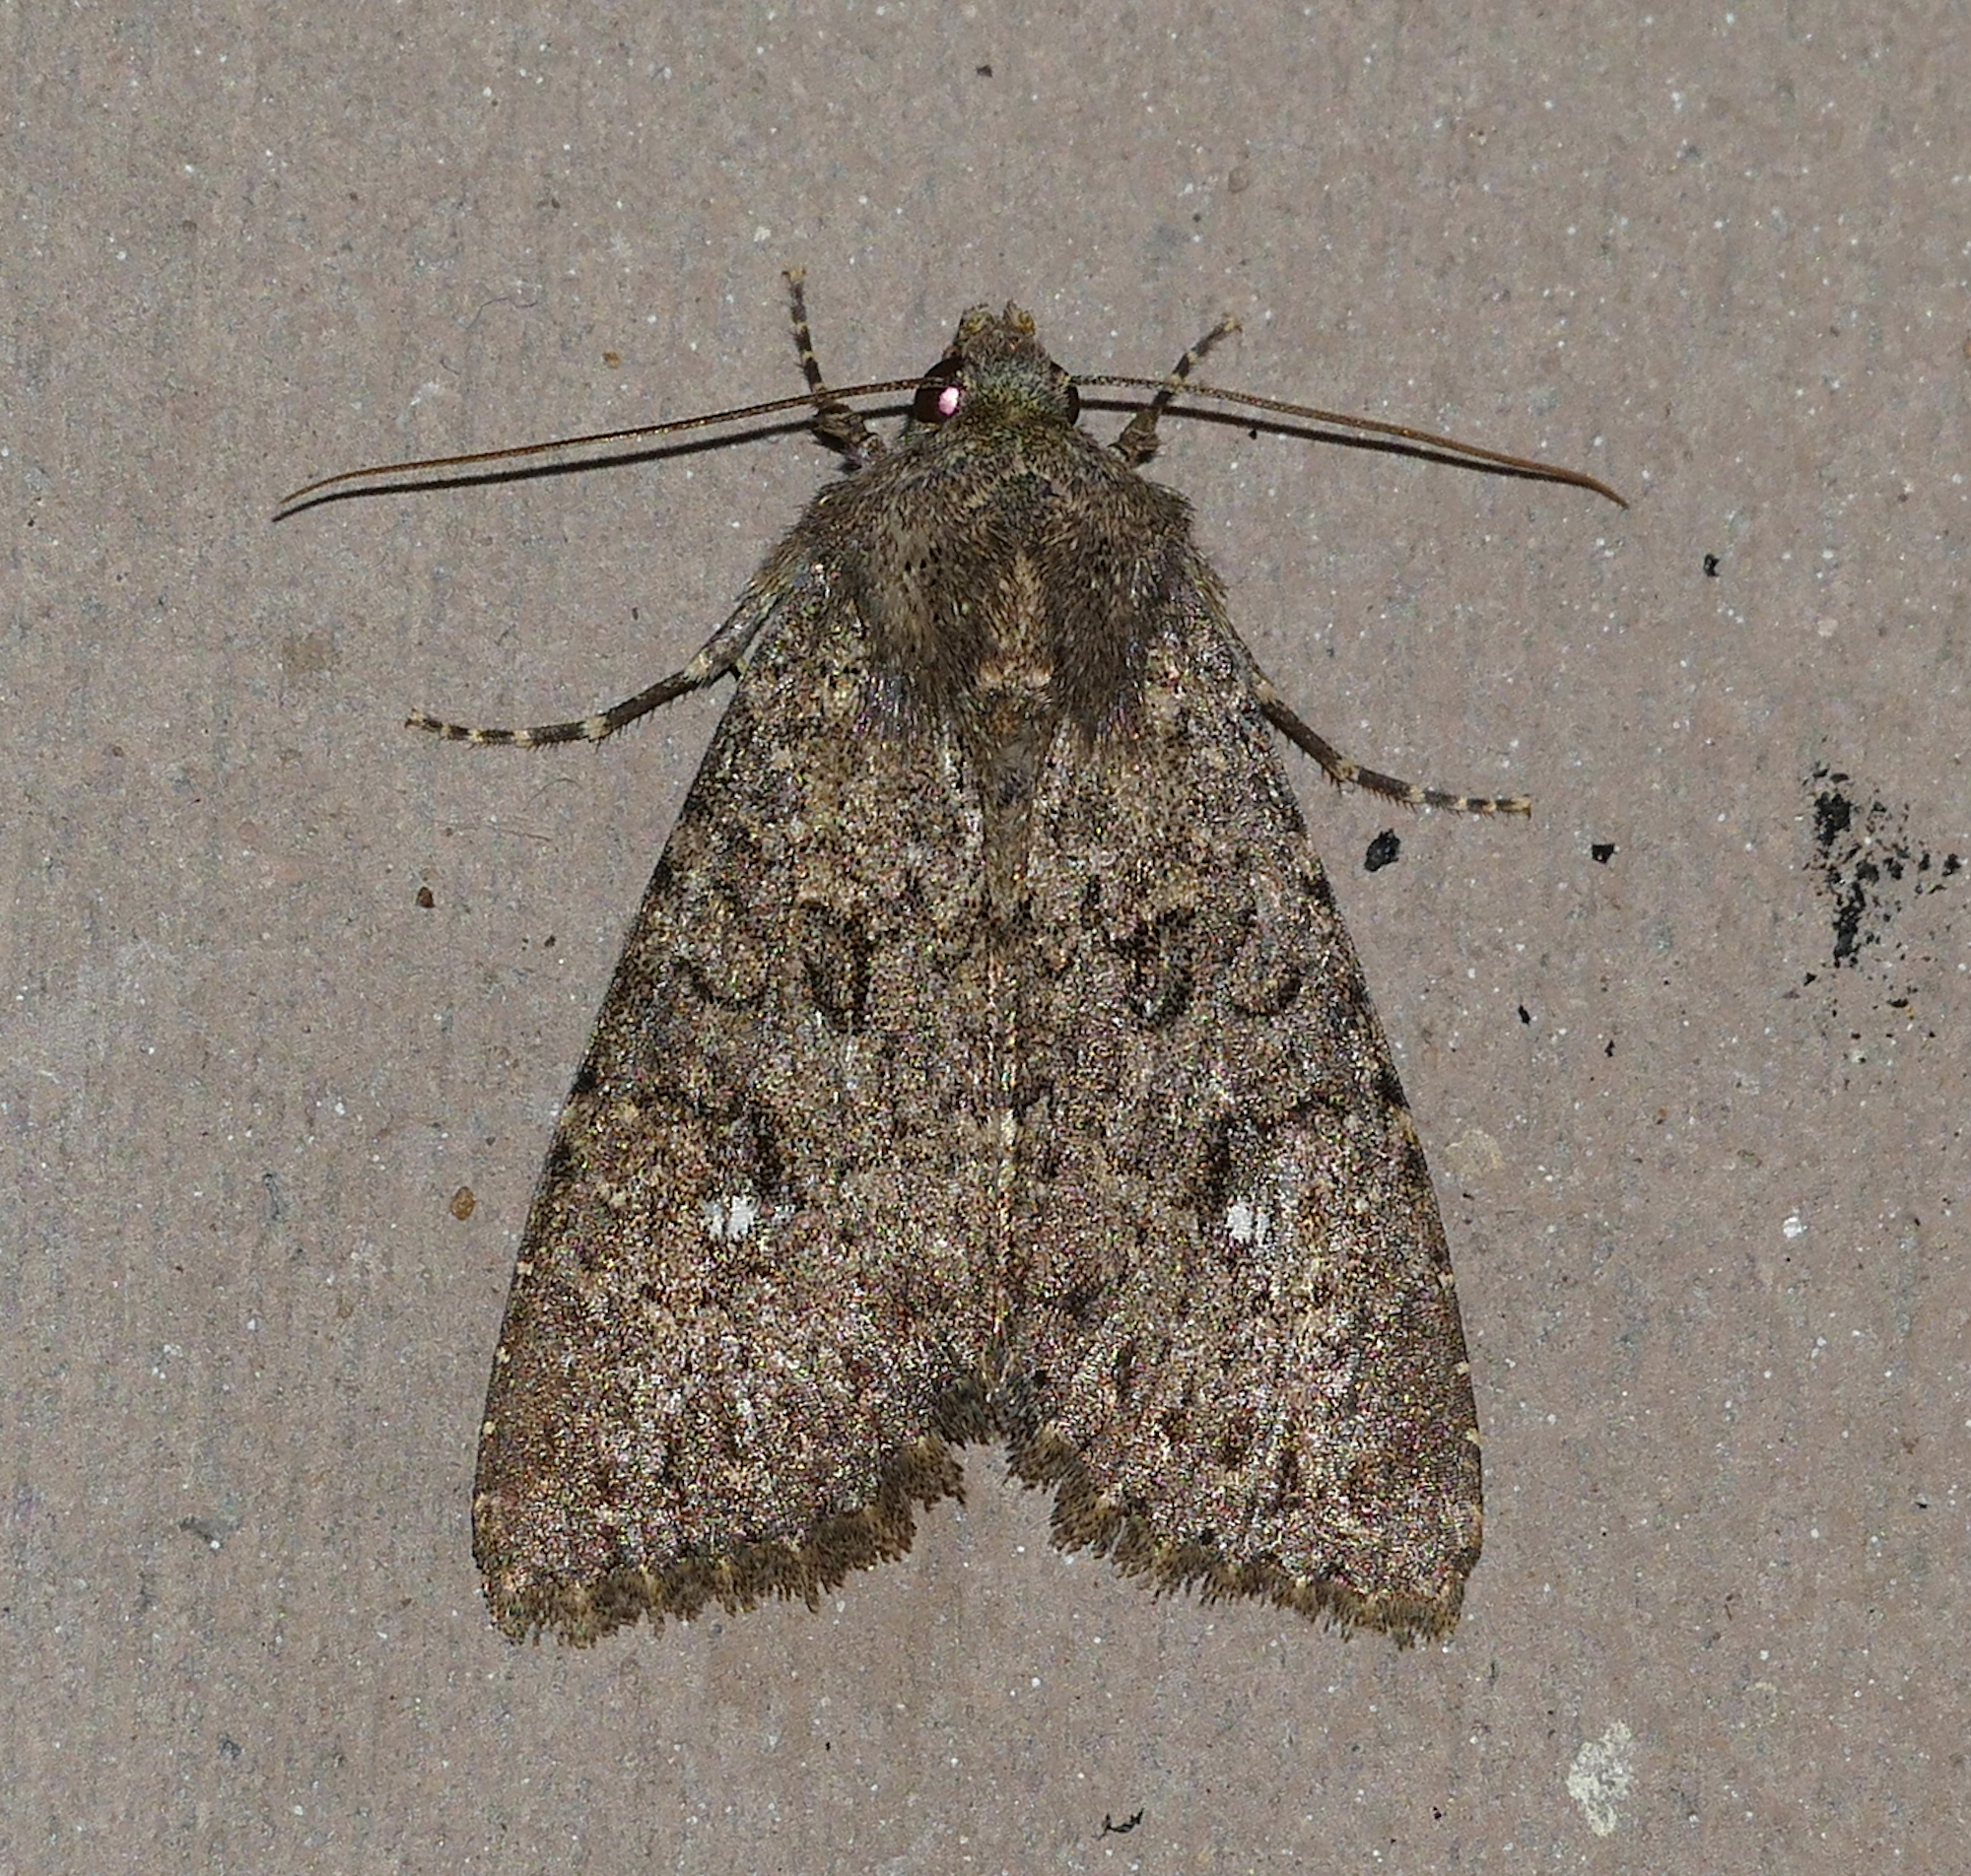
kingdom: Animalia
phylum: Arthropoda
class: Insecta
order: Lepidoptera
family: Noctuidae
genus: Apamea
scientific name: Apamea geminimacula
